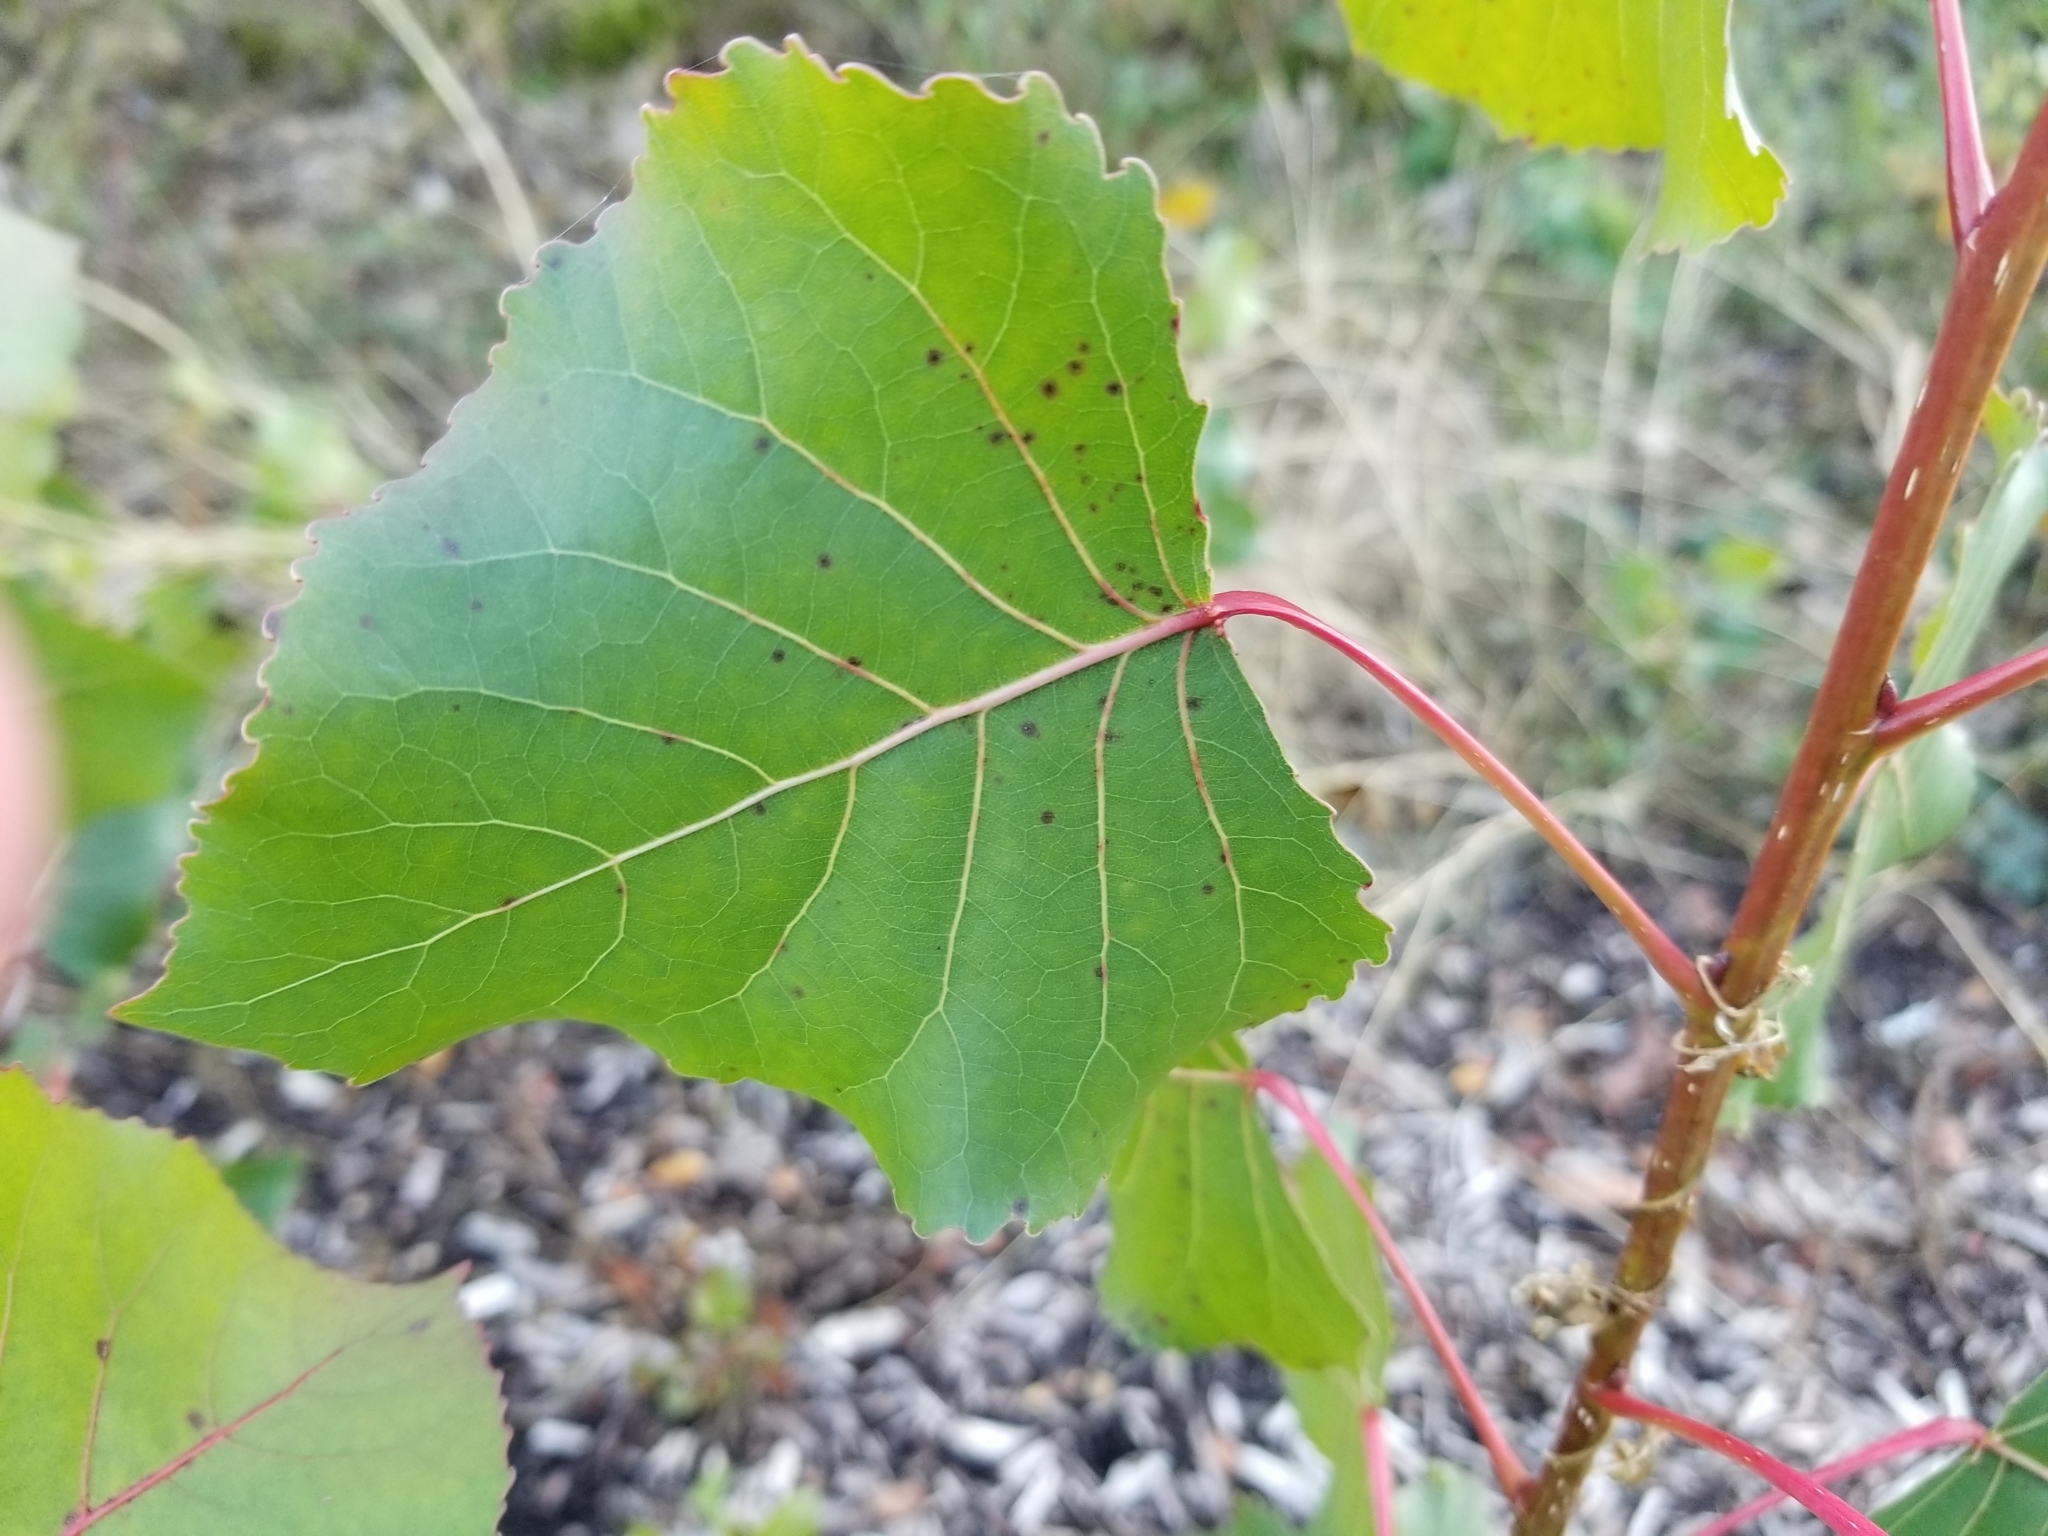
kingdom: Plantae
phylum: Tracheophyta
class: Magnoliopsida
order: Malpighiales
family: Salicaceae
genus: Populus
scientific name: Populus deltoides
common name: Eastern cottonwood
